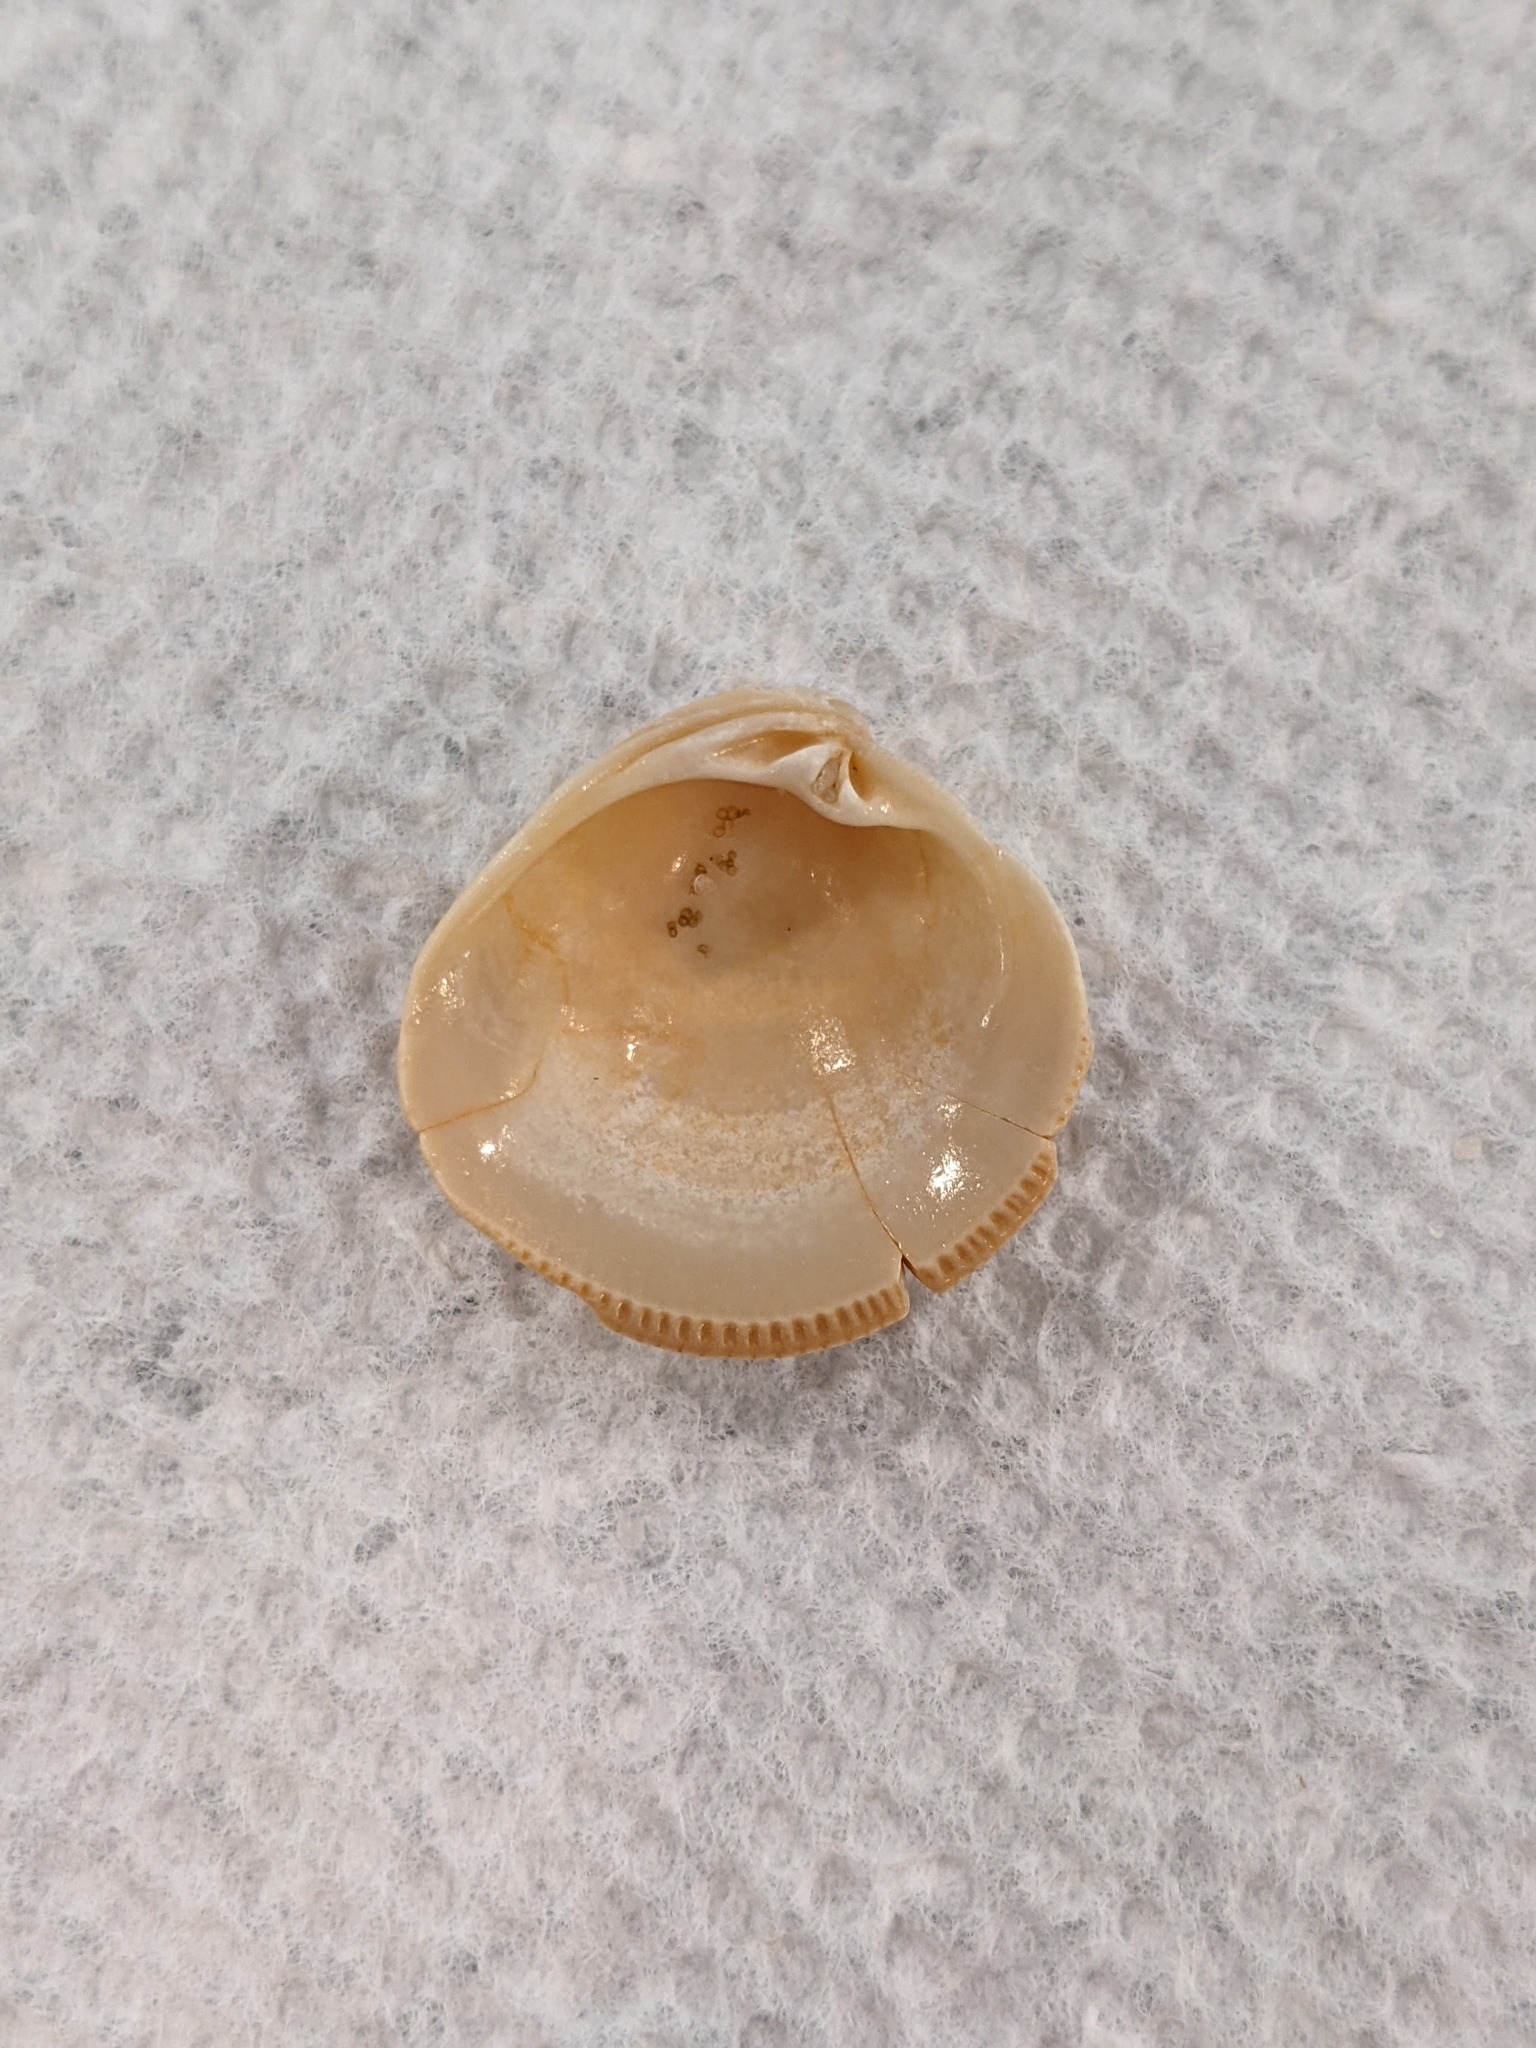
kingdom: Animalia
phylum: Mollusca
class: Bivalvia
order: Venerida
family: Veneridae
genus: Chionopsis
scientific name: Chionopsis intapurpurea
